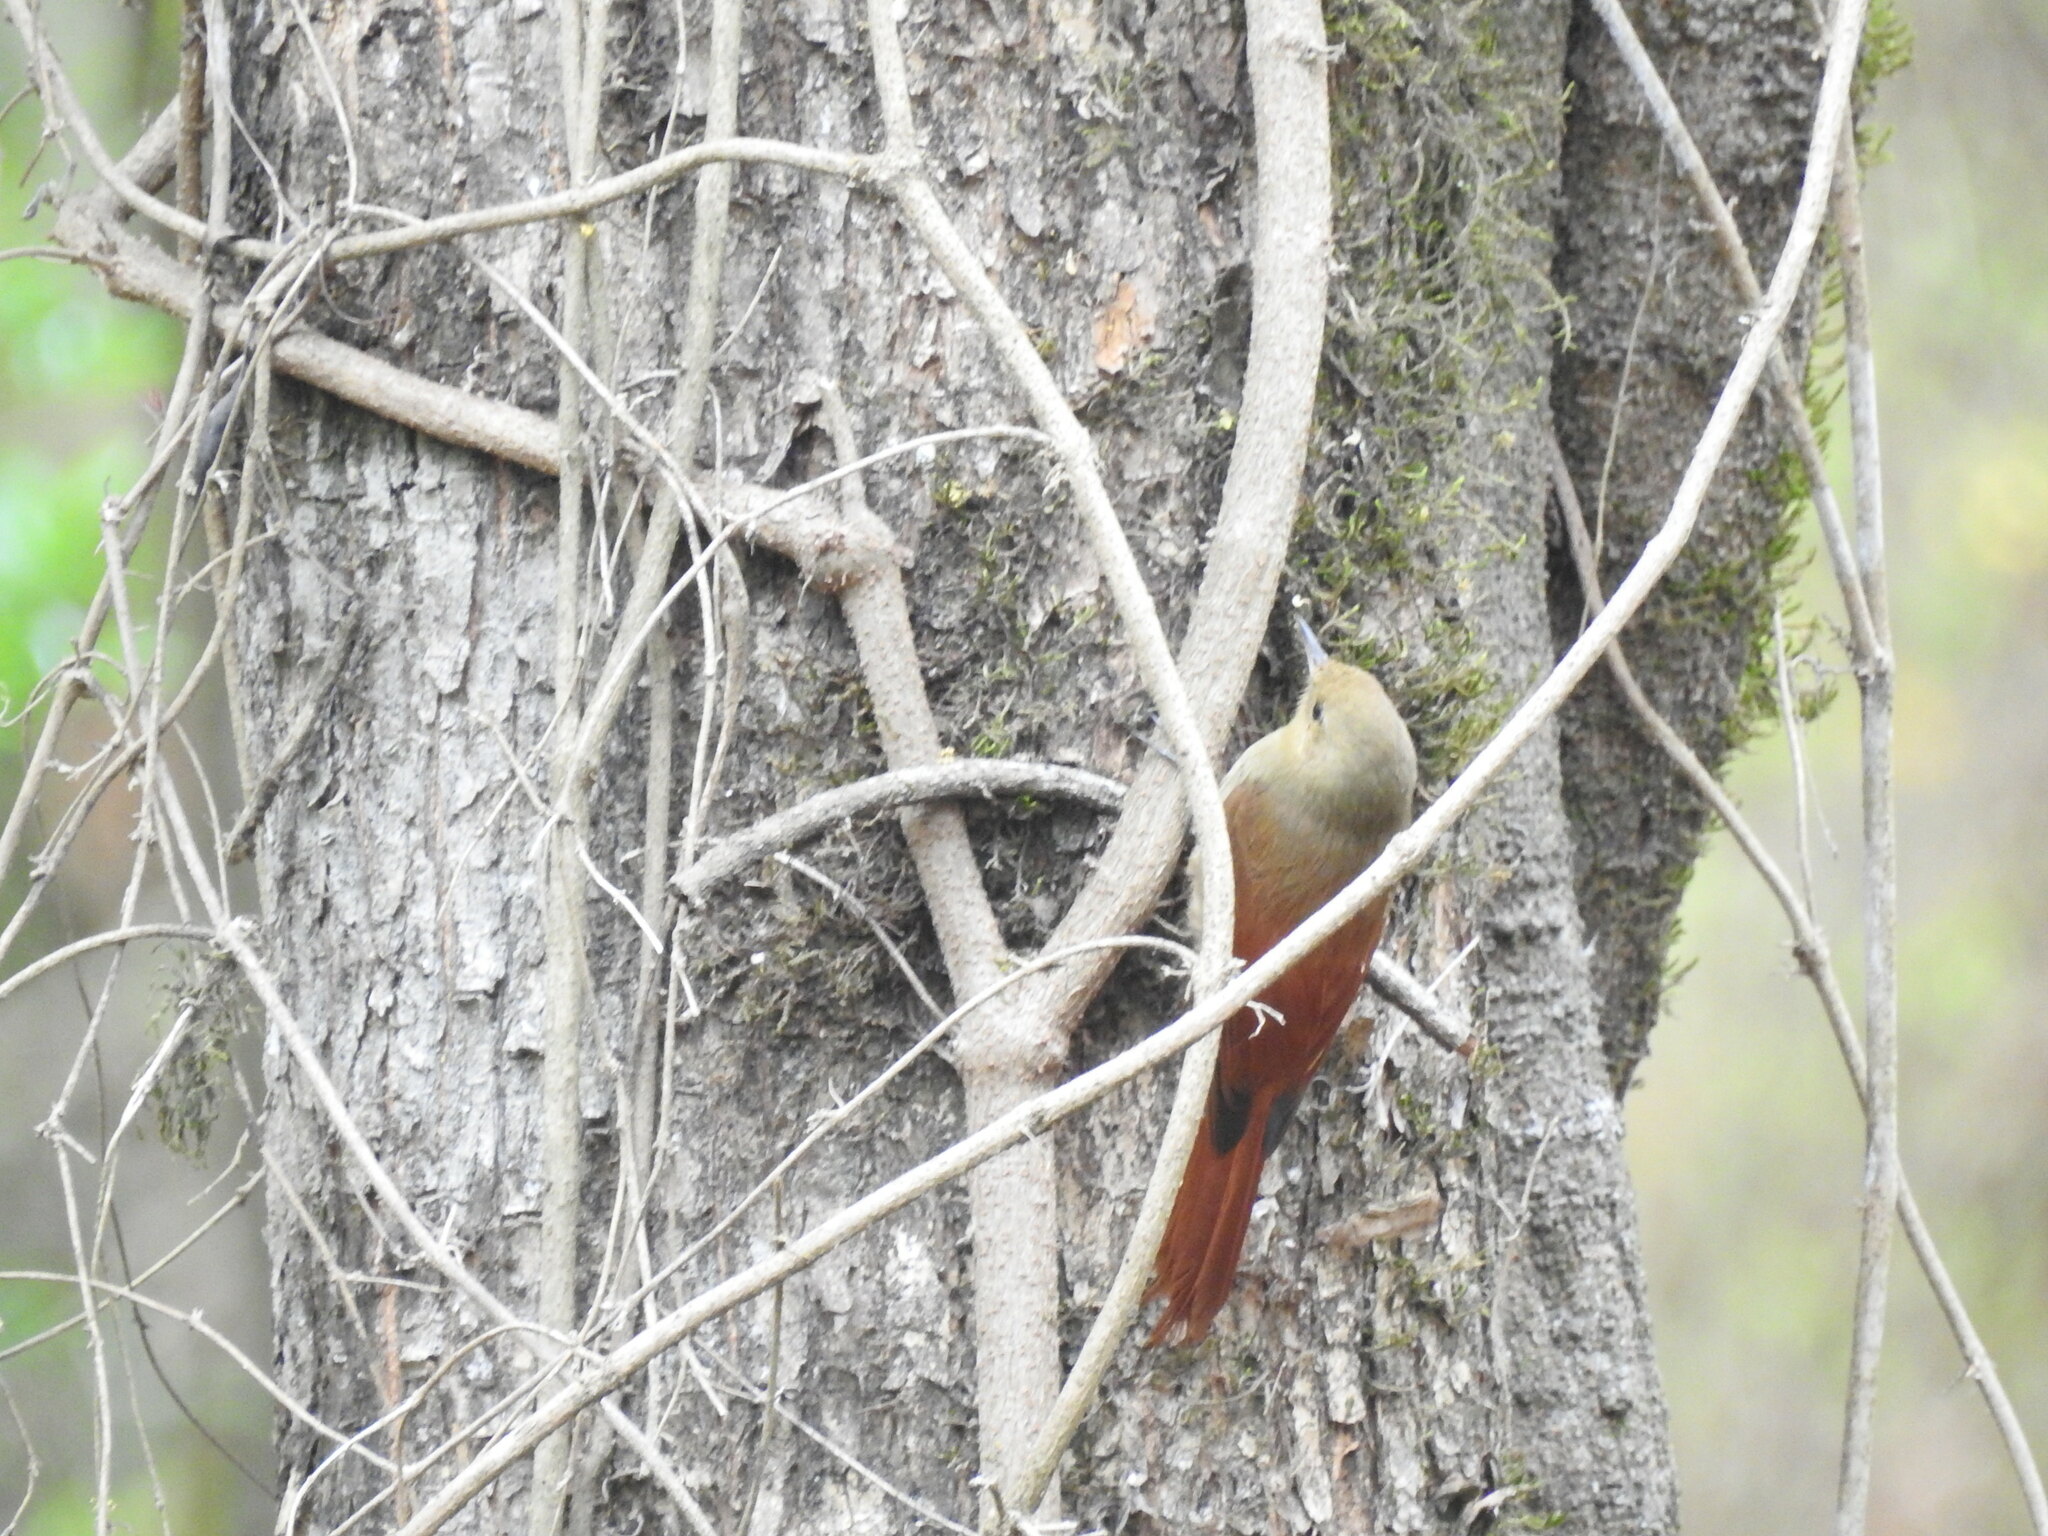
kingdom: Animalia
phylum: Chordata
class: Aves
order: Passeriformes
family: Furnariidae
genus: Sittasomus
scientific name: Sittasomus griseicapillus
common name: Olivaceous woodcreeper
